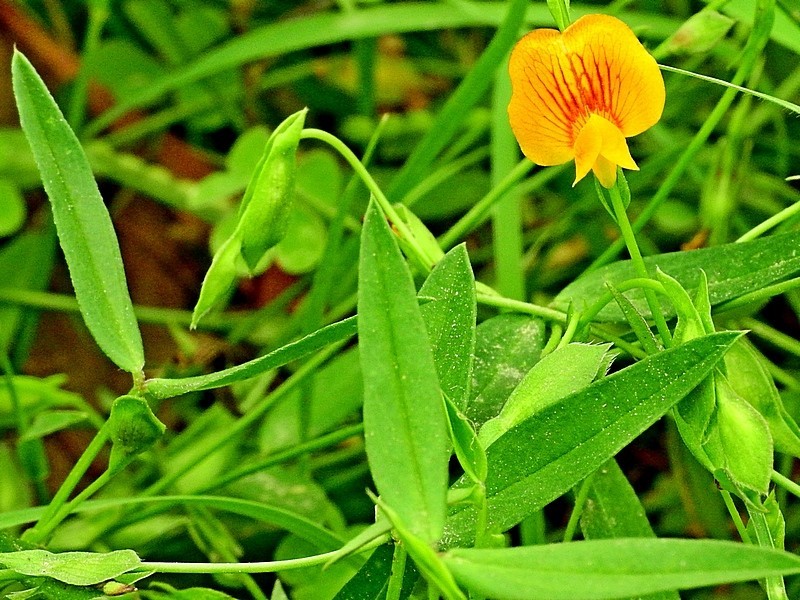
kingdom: Plantae
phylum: Tracheophyta
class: Magnoliopsida
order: Fabales
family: Fabaceae
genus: Zornia
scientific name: Zornia dyctiocarpa
